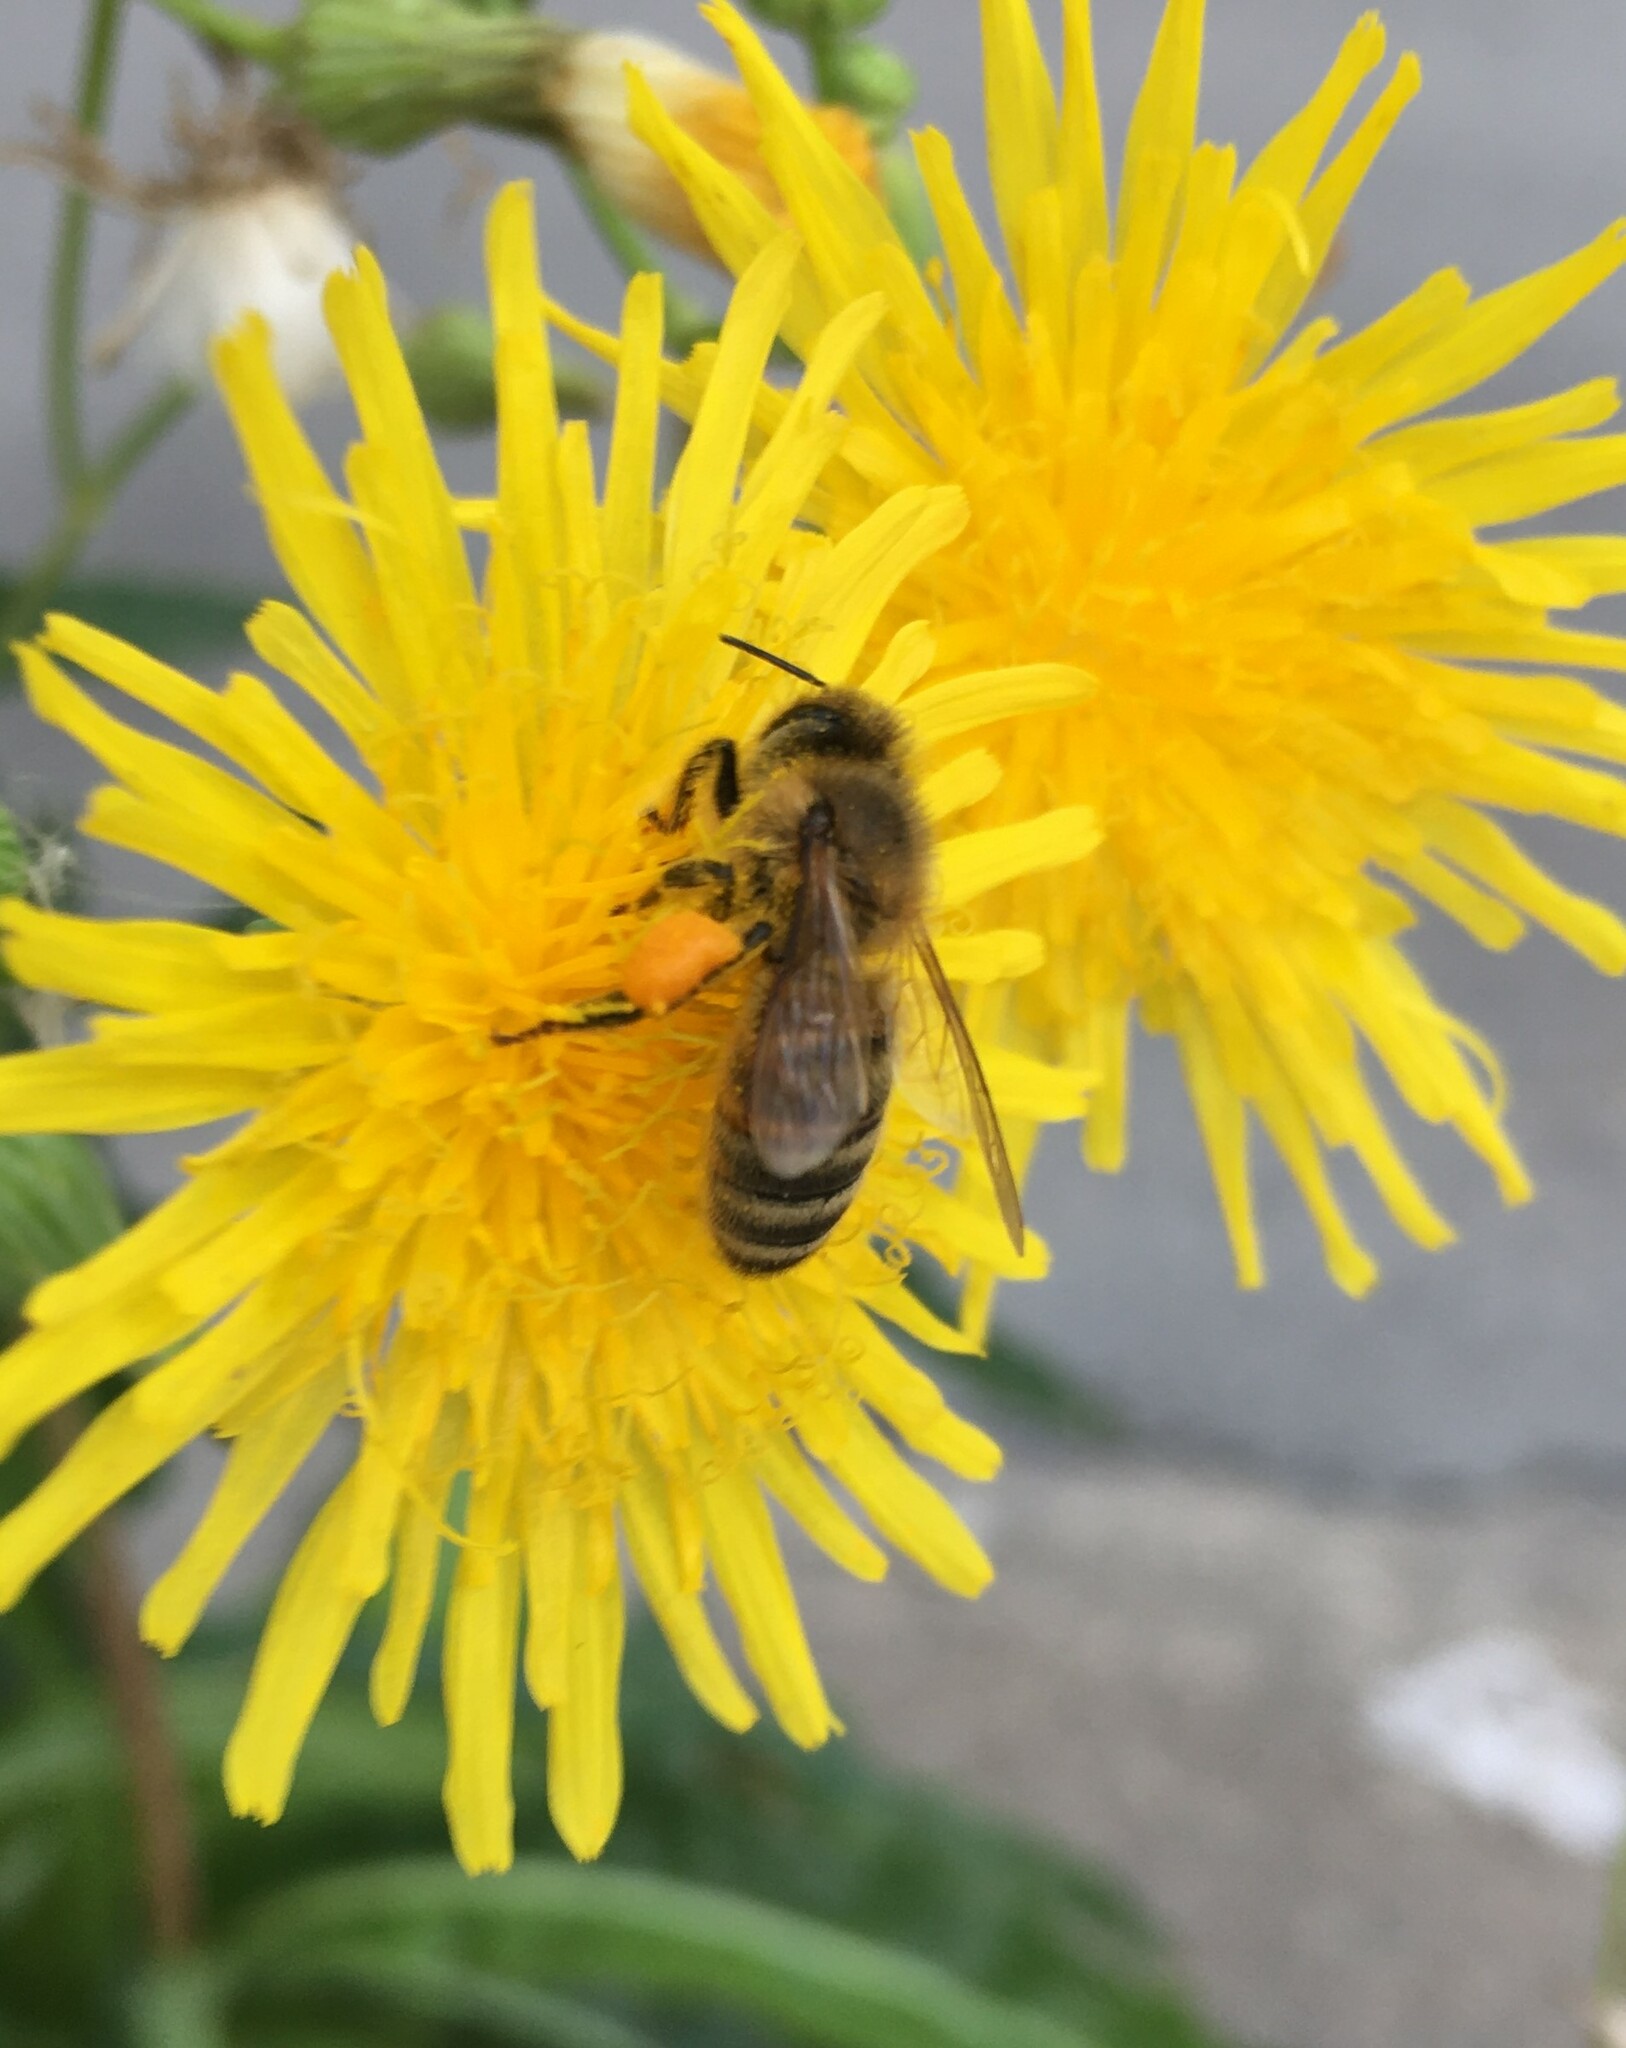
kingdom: Animalia
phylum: Arthropoda
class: Insecta
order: Hymenoptera
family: Apidae
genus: Apis
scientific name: Apis mellifera
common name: Honey bee
